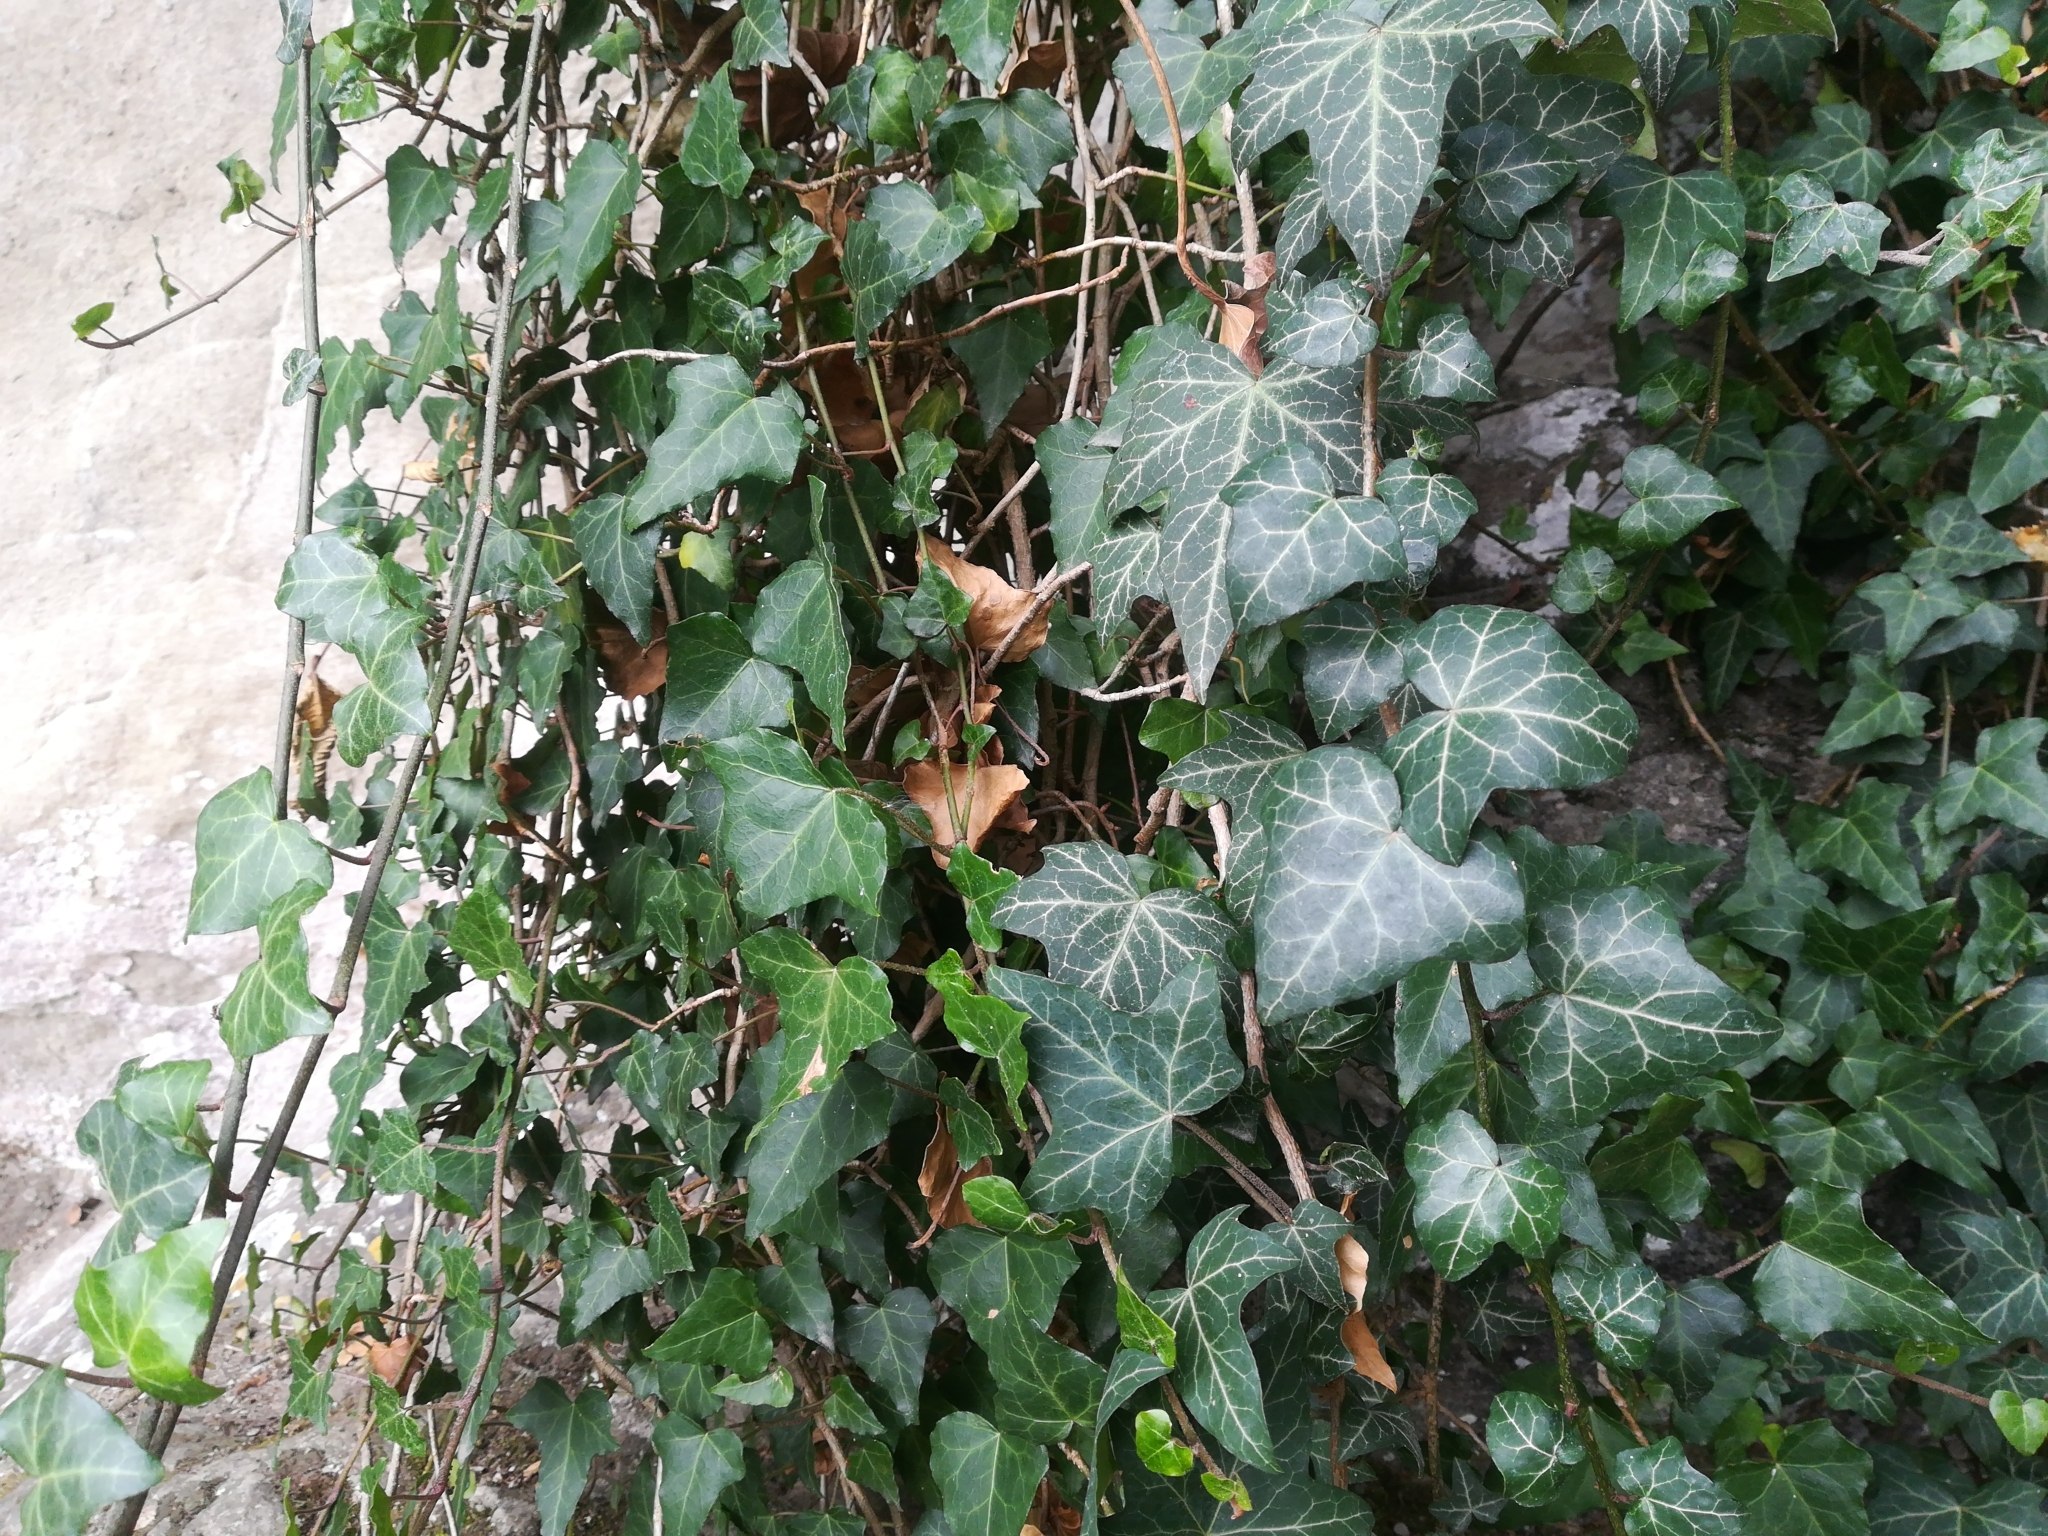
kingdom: Plantae
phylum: Tracheophyta
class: Magnoliopsida
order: Apiales
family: Araliaceae
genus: Hedera
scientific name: Hedera helix
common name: Ivy
